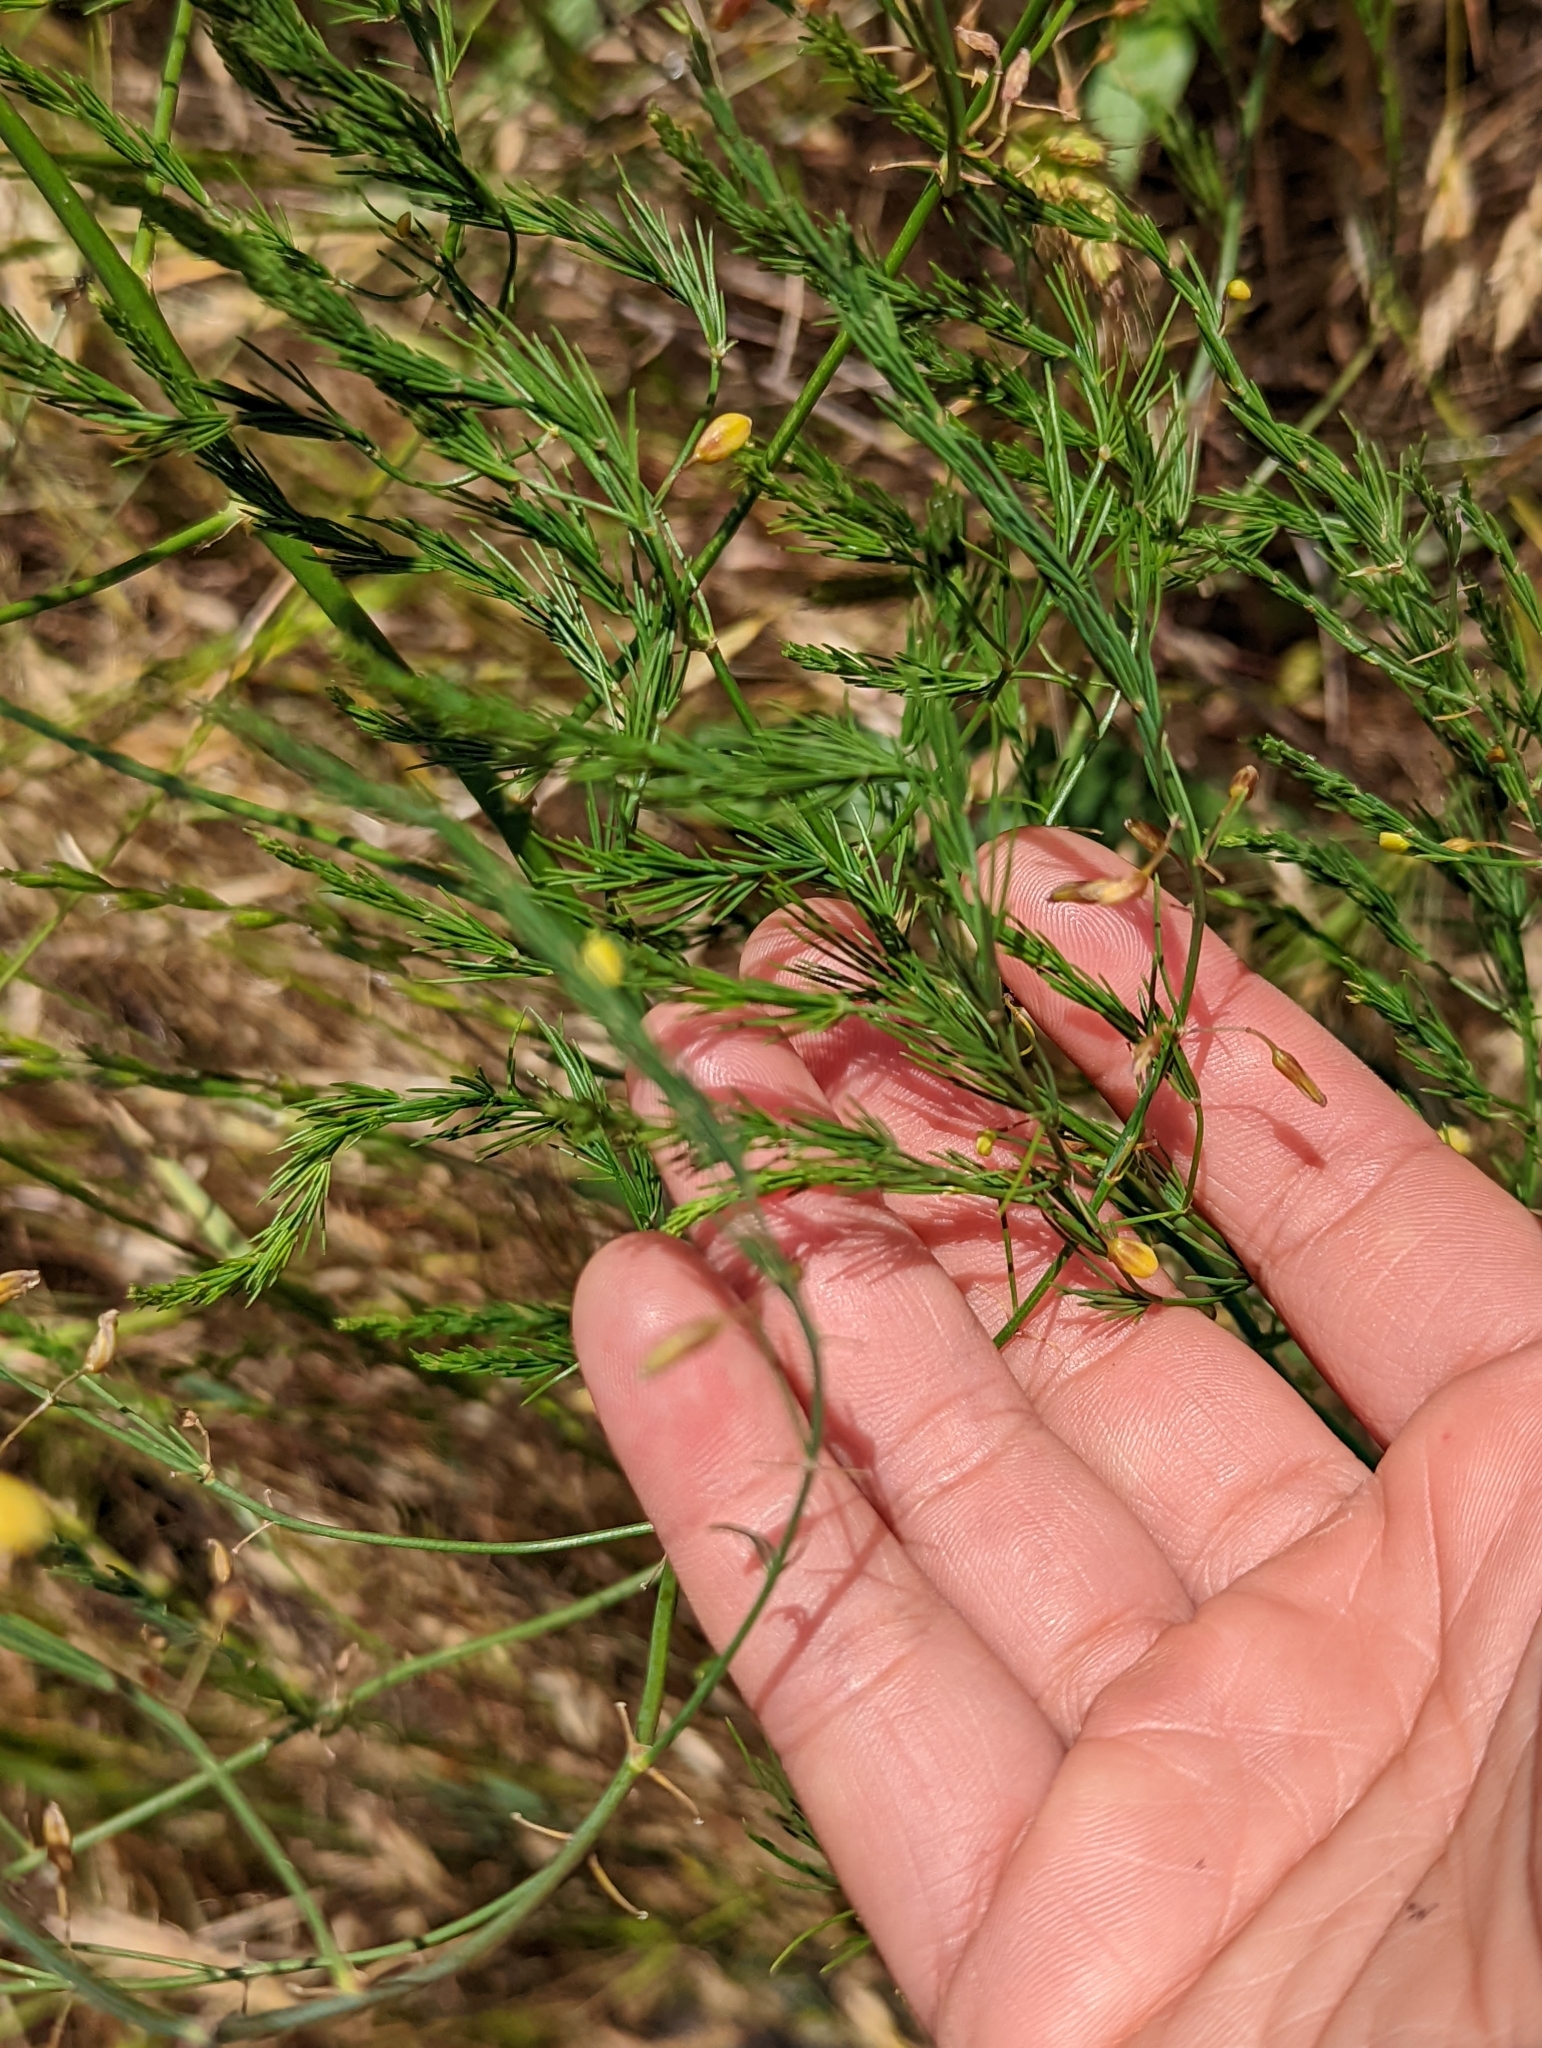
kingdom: Plantae
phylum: Tracheophyta
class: Liliopsida
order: Asparagales
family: Asparagaceae
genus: Asparagus
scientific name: Asparagus officinalis
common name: Garden asparagus
